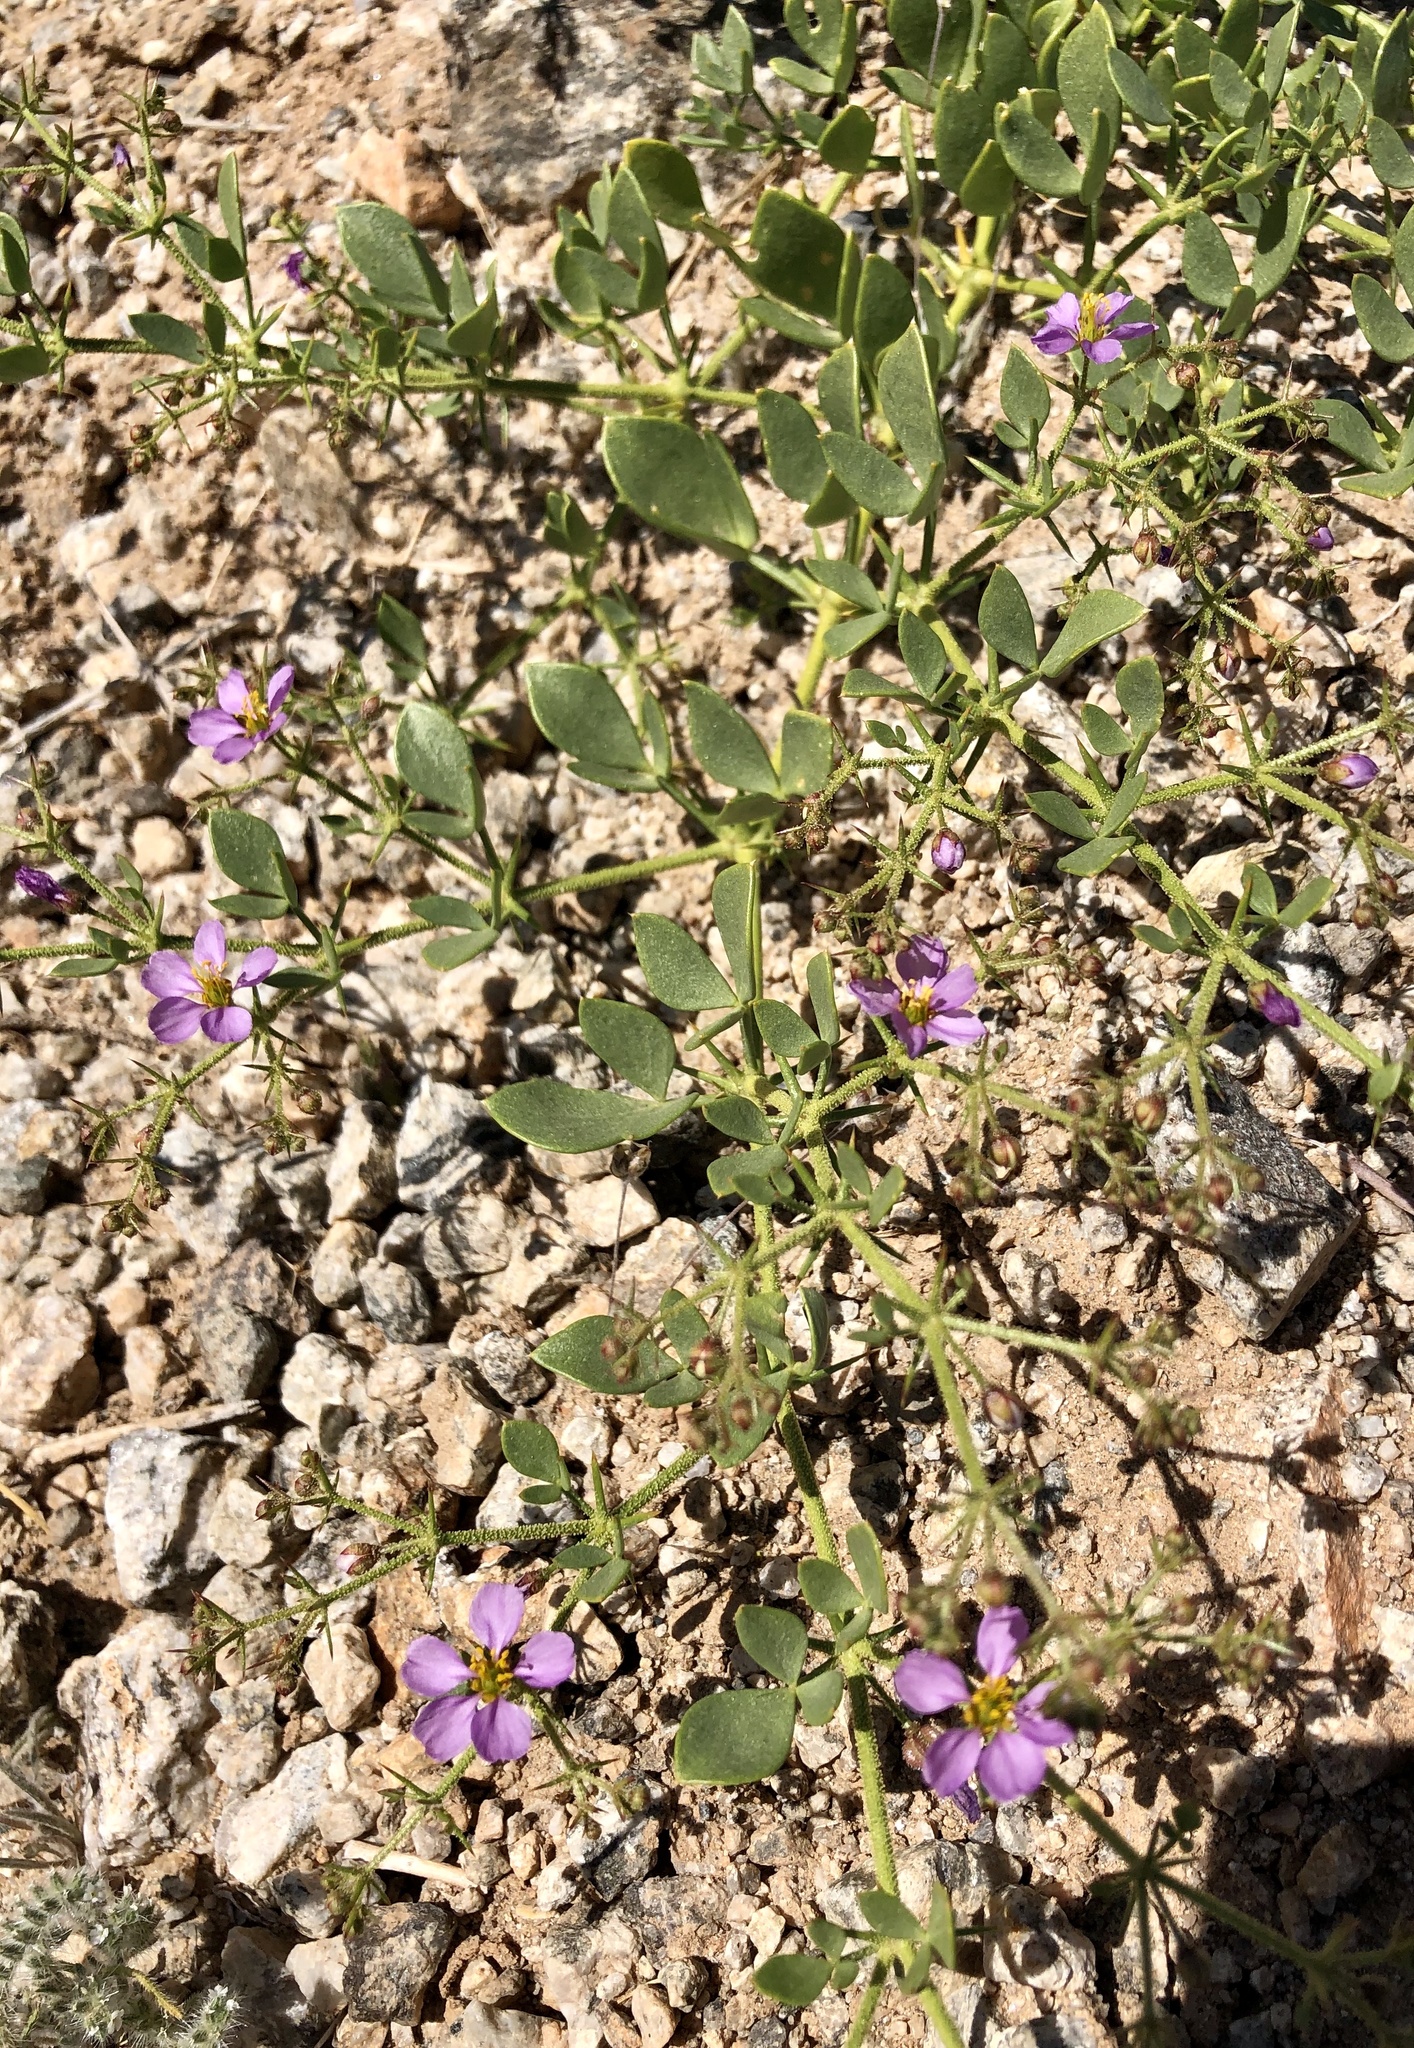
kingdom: Plantae
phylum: Tracheophyta
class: Magnoliopsida
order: Zygophyllales
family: Zygophyllaceae
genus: Fagonia
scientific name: Fagonia pachyacantha
